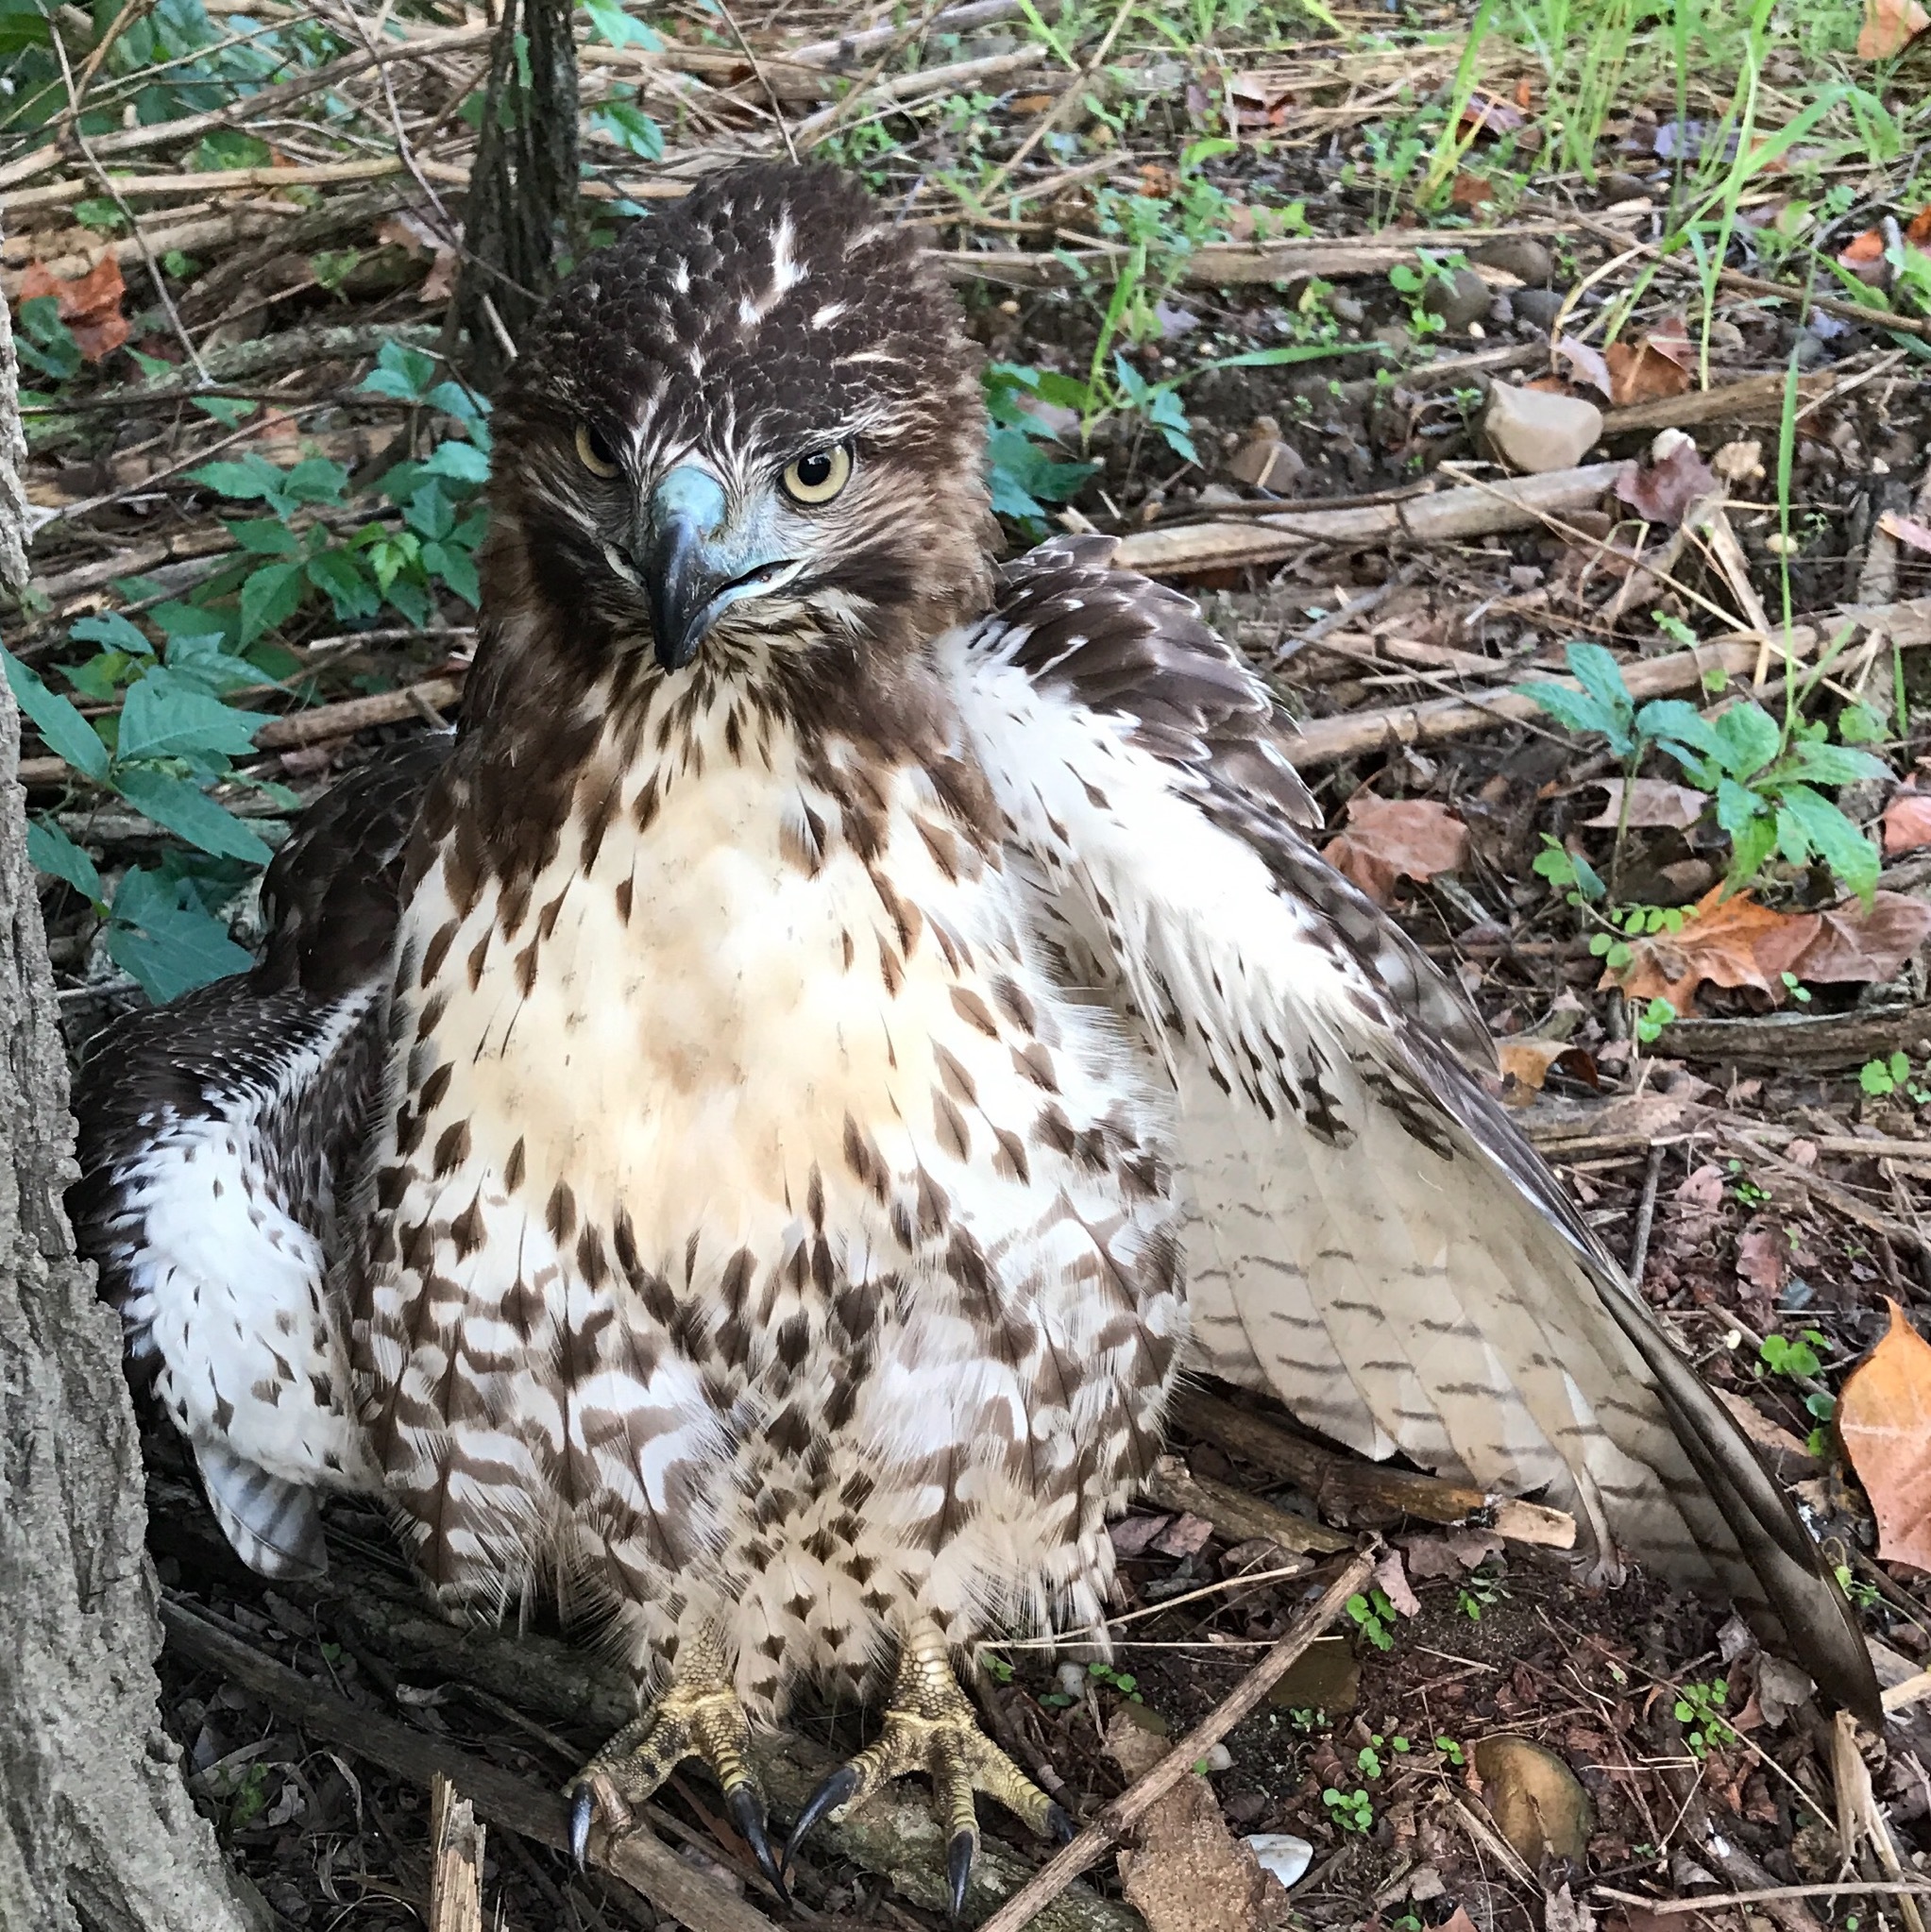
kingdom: Animalia
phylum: Chordata
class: Aves
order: Accipitriformes
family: Accipitridae
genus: Buteo
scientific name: Buteo jamaicensis
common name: Red-tailed hawk
